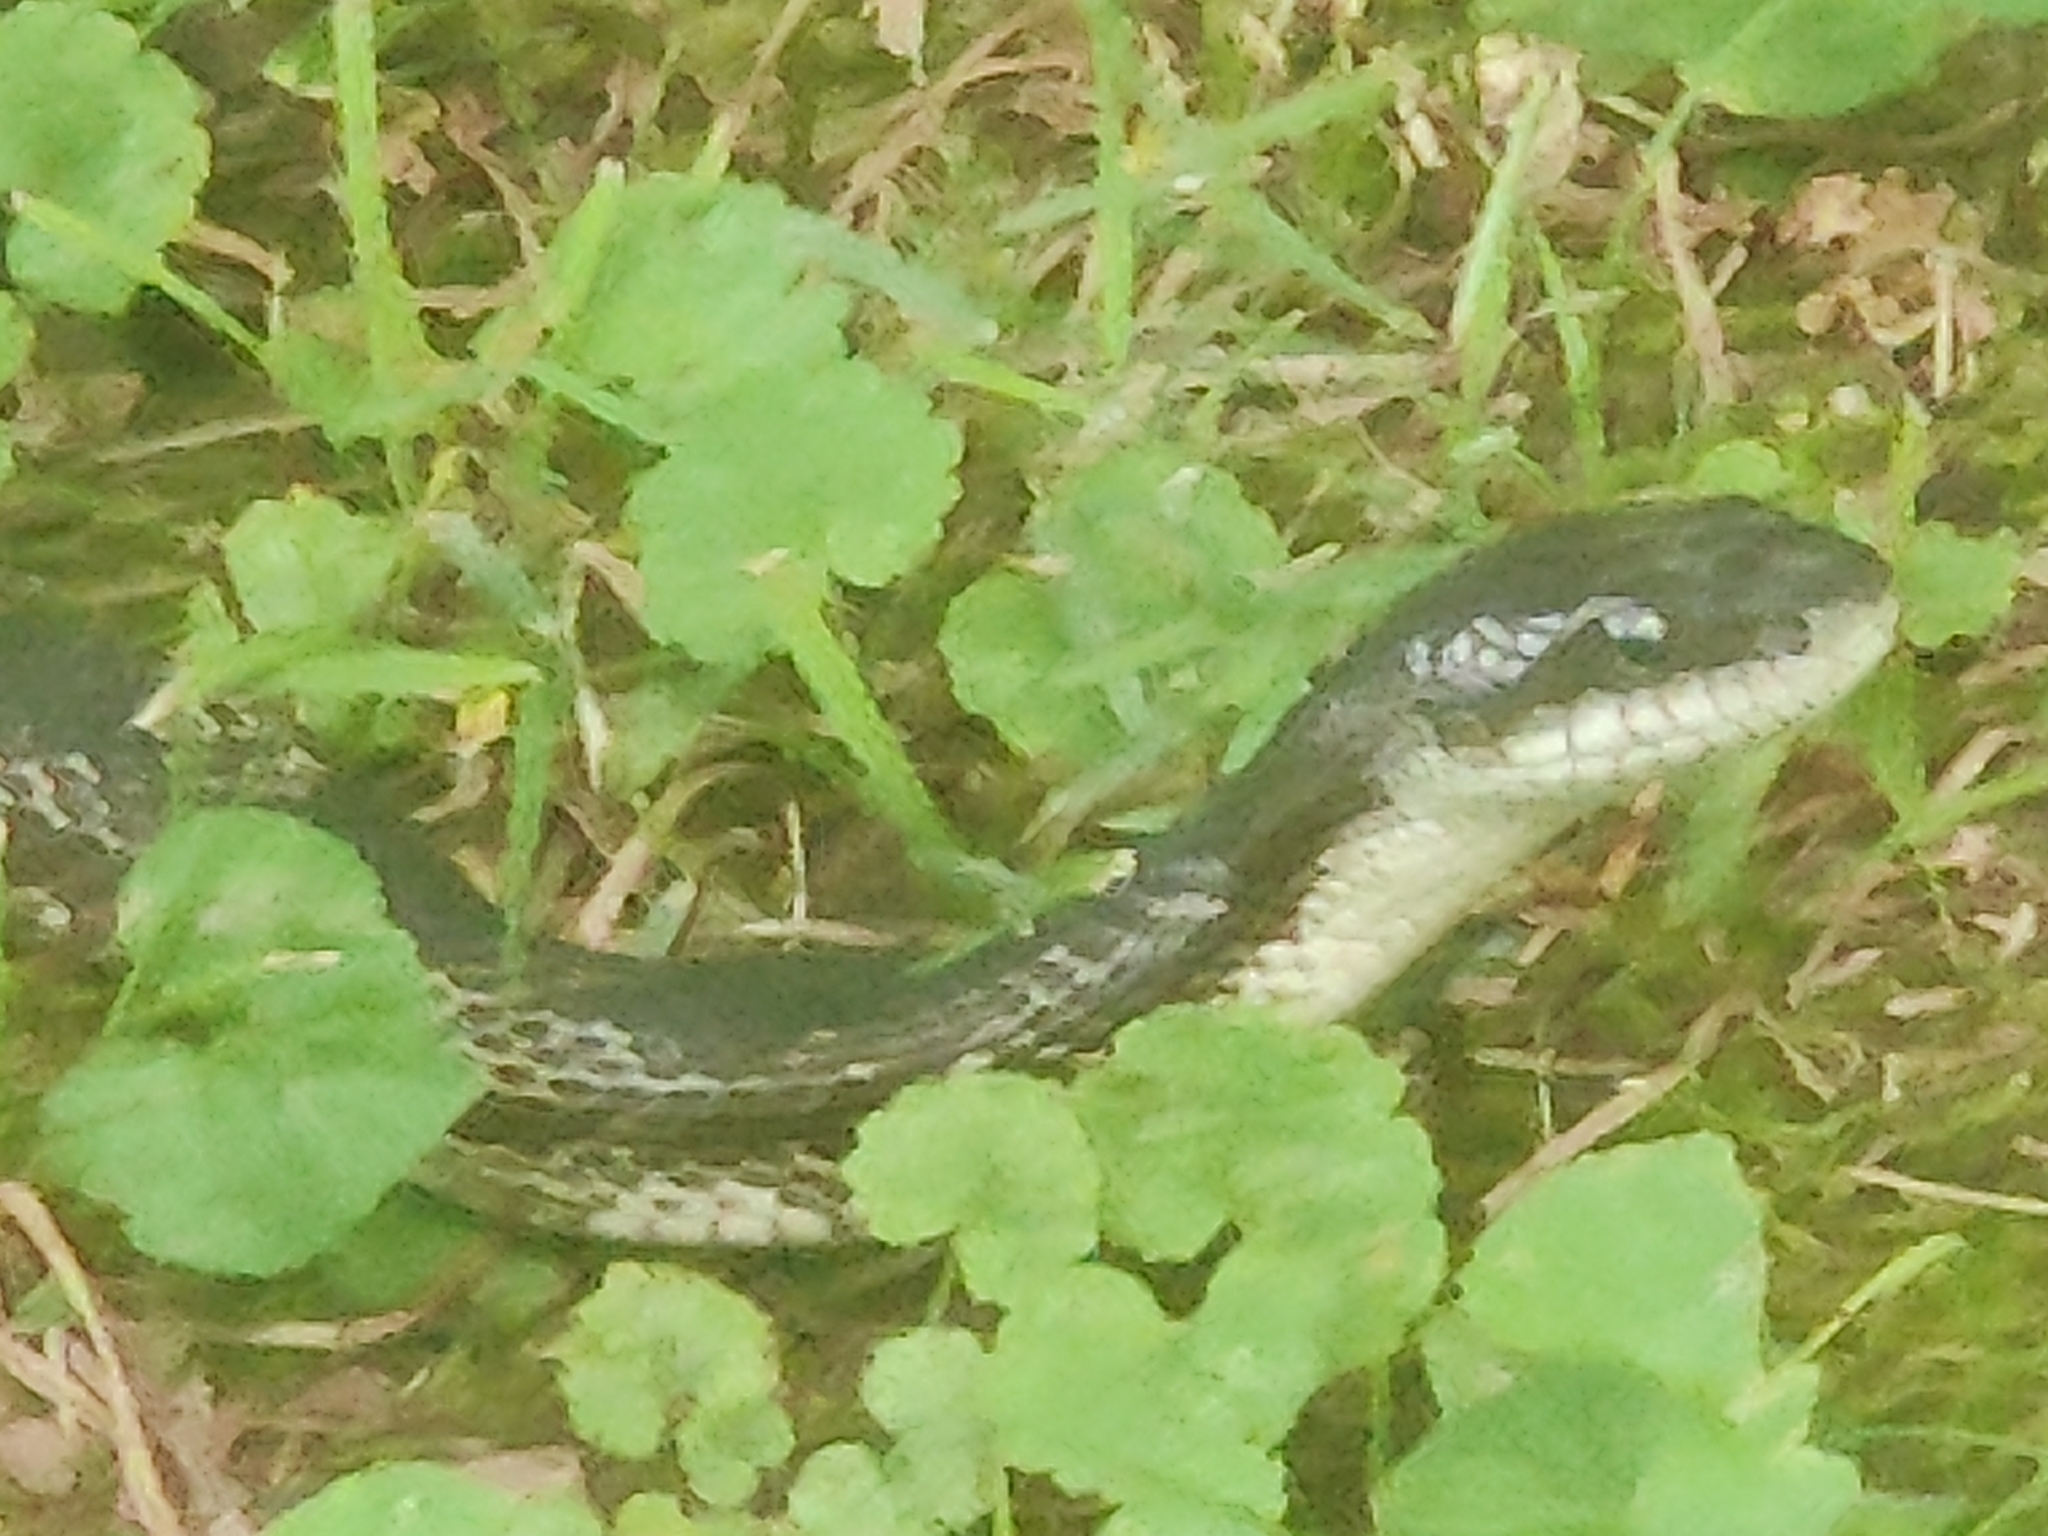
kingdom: Animalia
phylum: Chordata
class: Squamata
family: Colubridae
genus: Pantherophis
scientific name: Pantherophis spiloides
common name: Gray rat snake
